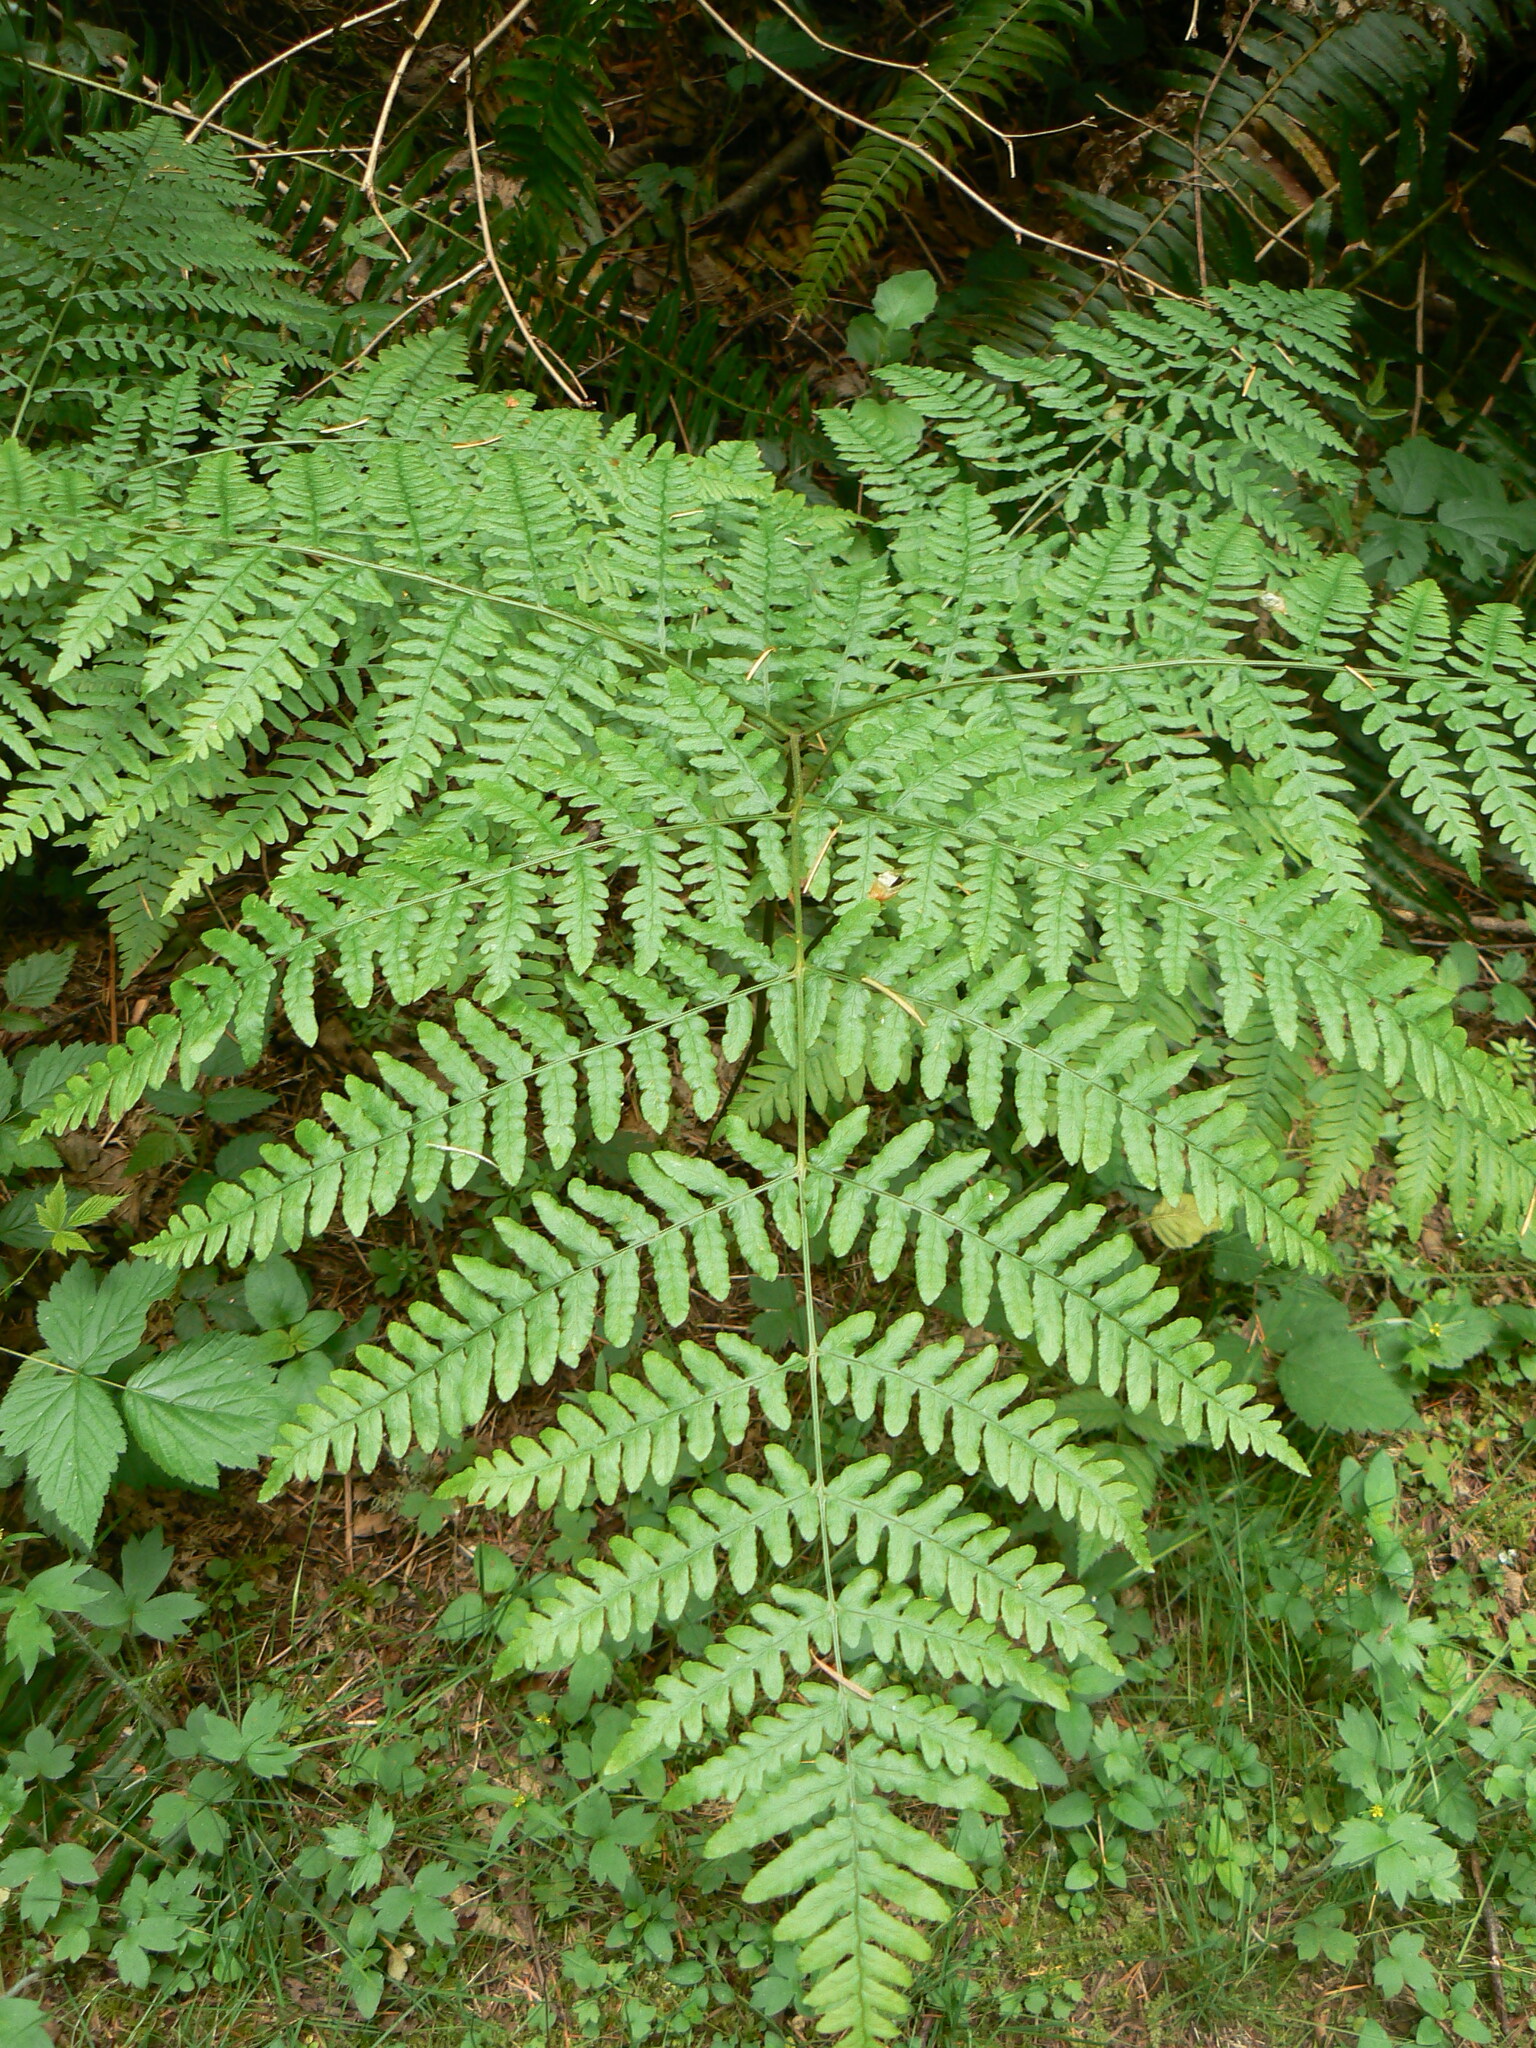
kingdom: Plantae
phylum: Tracheophyta
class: Polypodiopsida
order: Polypodiales
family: Dennstaedtiaceae
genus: Pteridium
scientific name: Pteridium aquilinum
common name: Bracken
